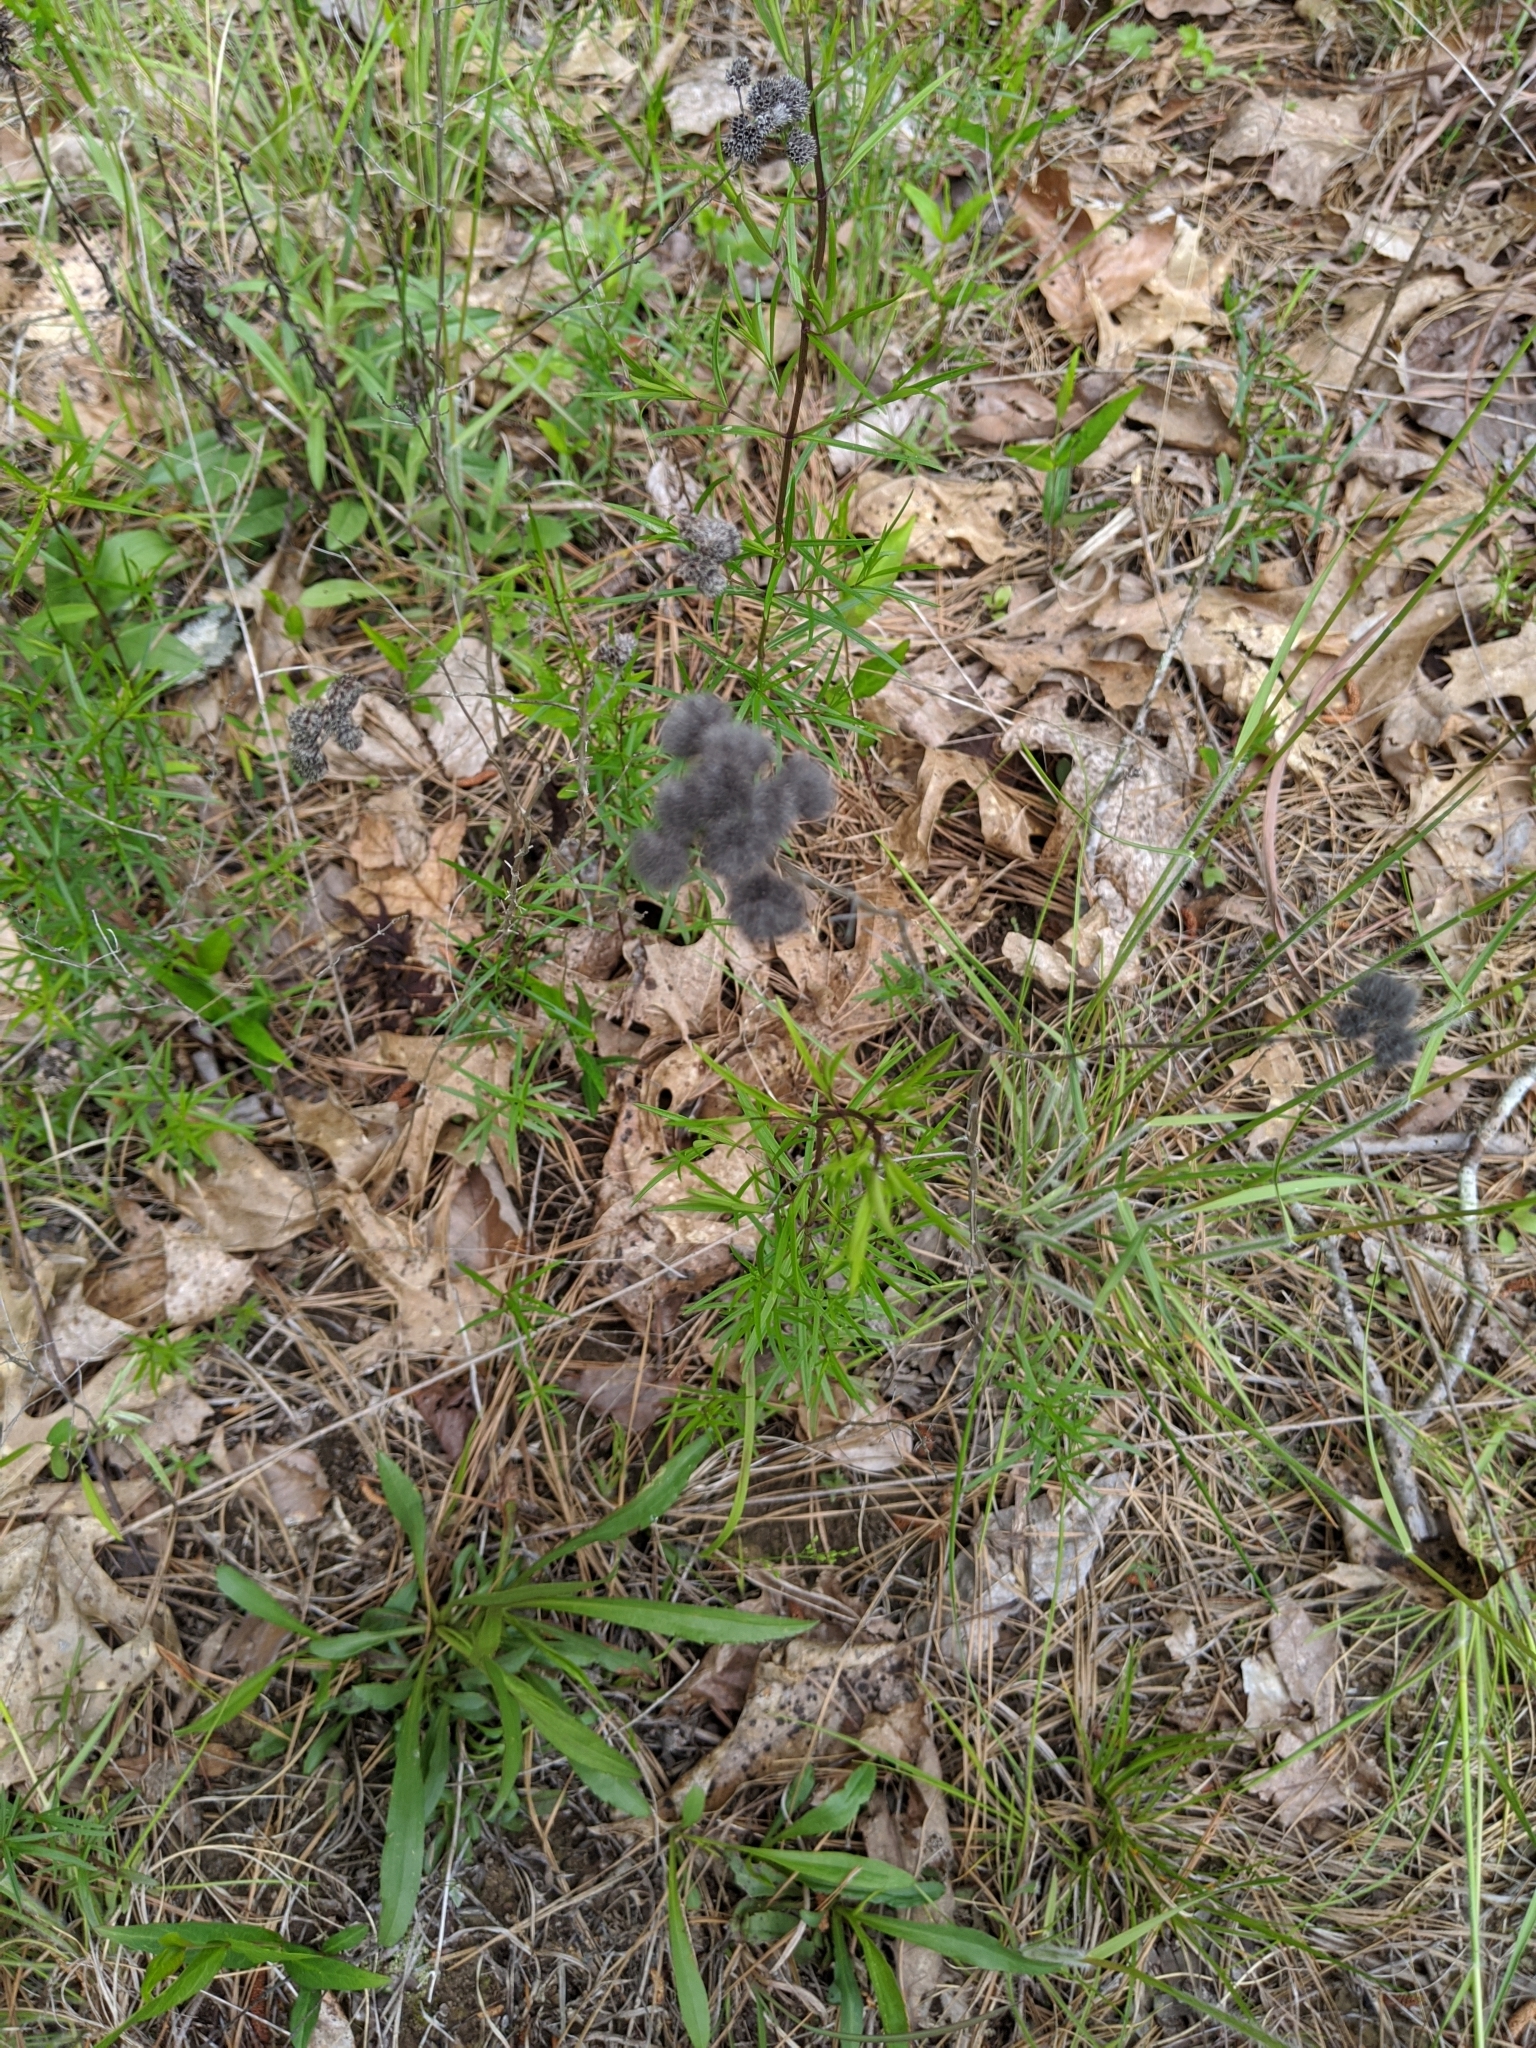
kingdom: Plantae
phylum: Tracheophyta
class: Magnoliopsida
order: Lamiales
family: Lamiaceae
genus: Pycnanthemum
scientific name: Pycnanthemum tenuifolium
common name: Narrow-leaf mountain-mint
